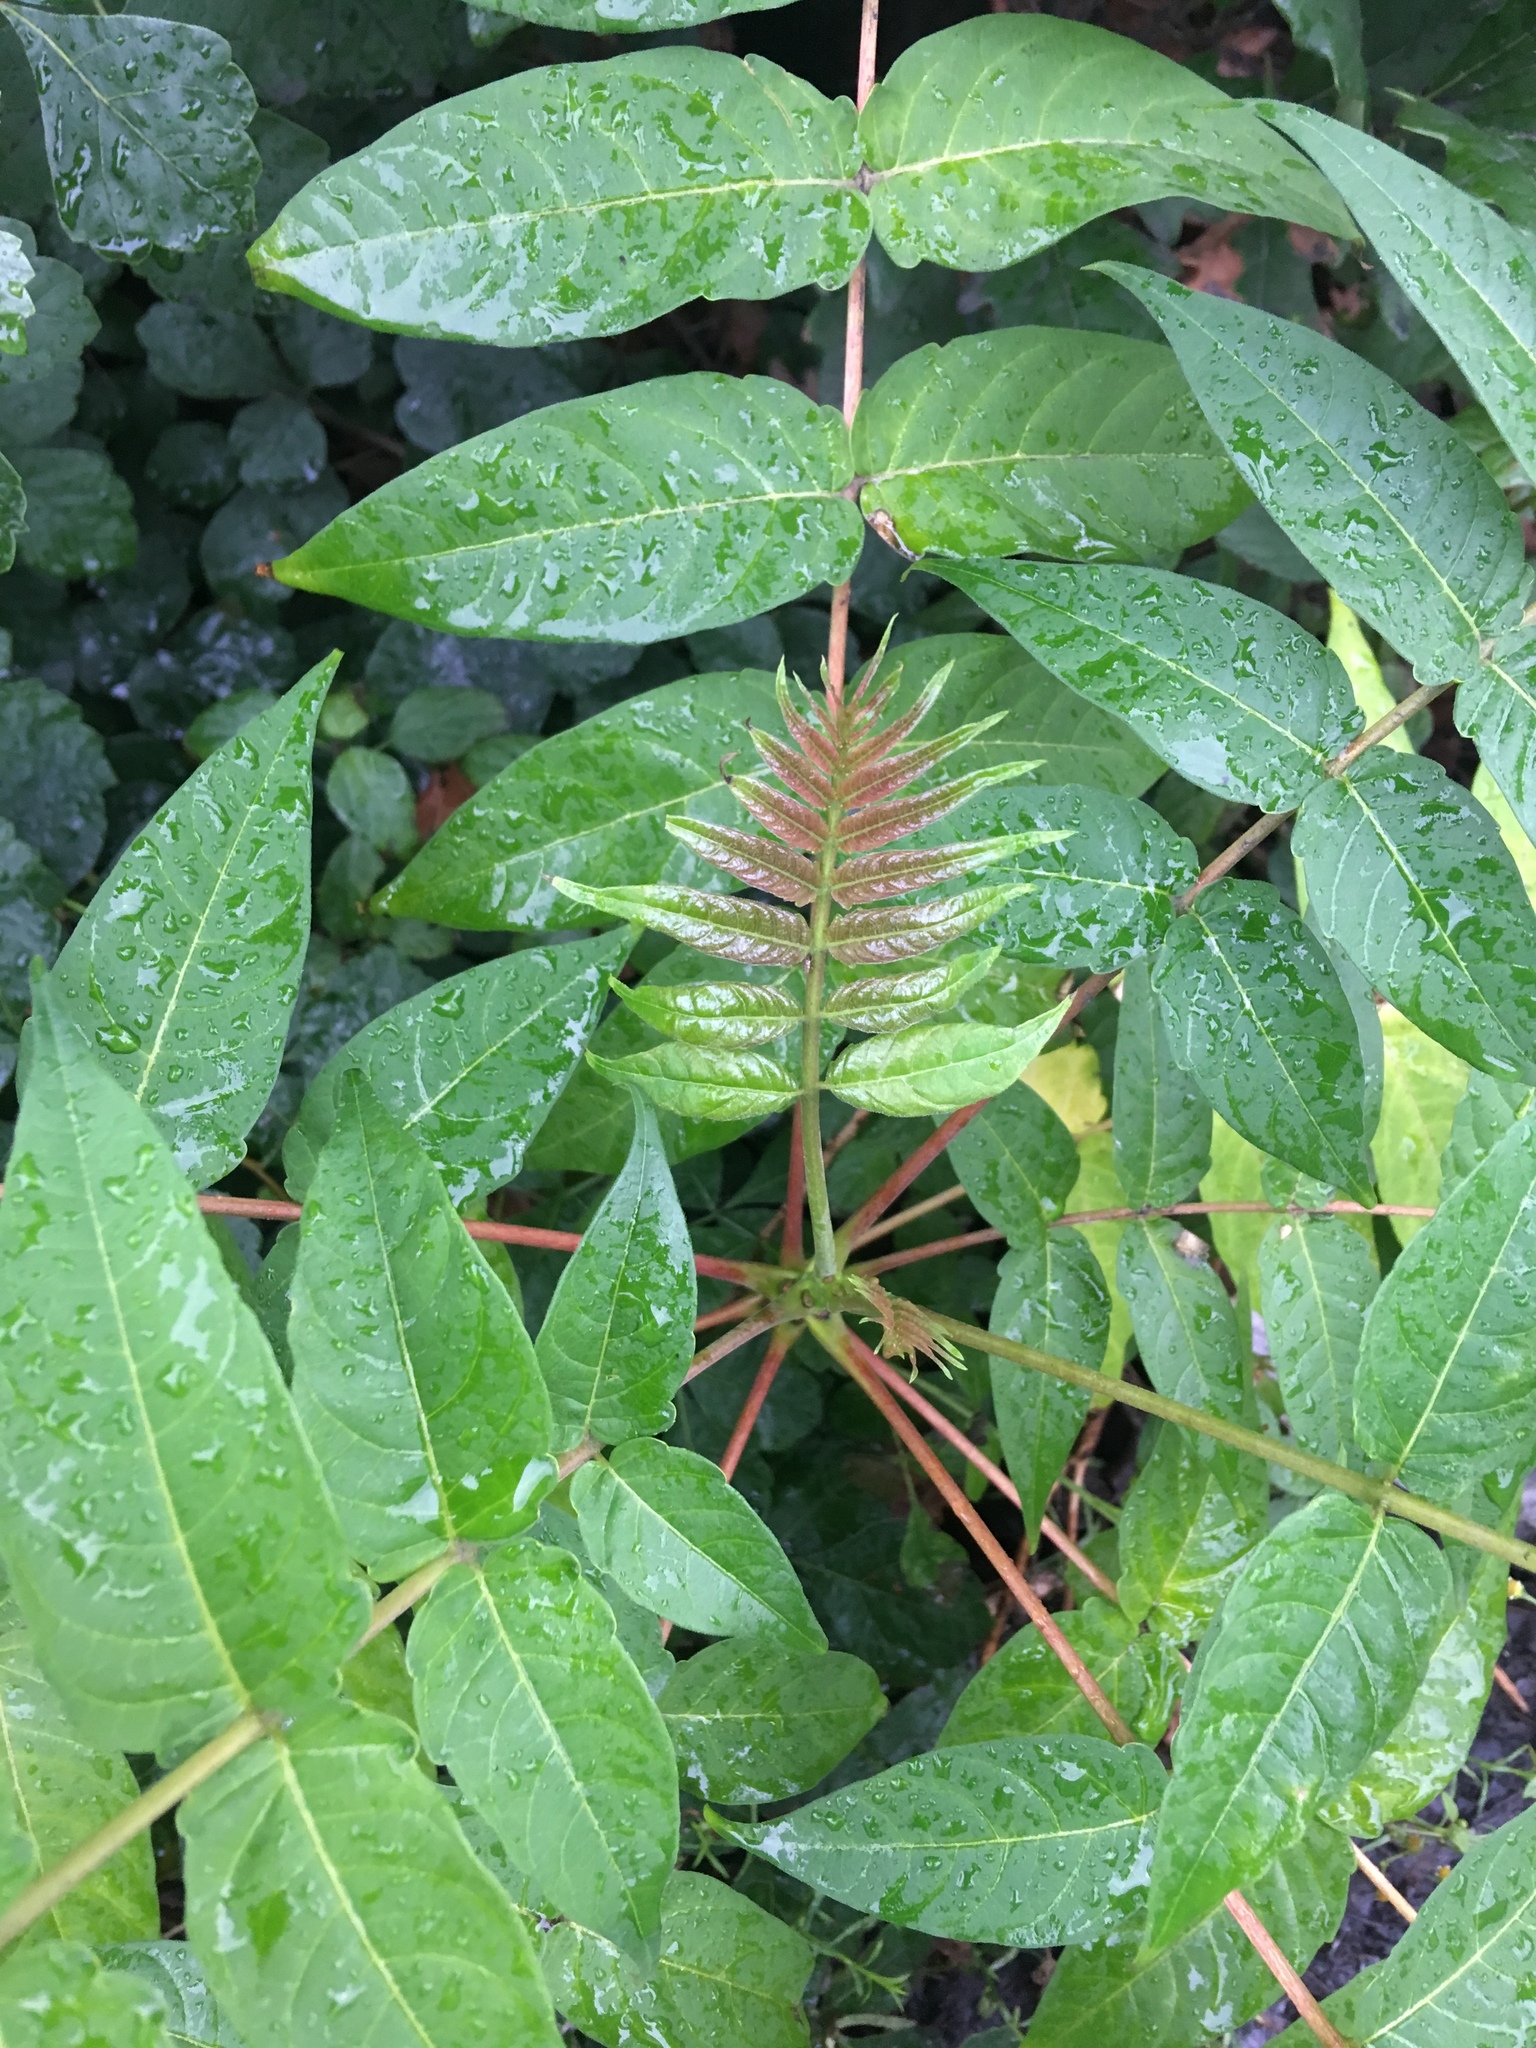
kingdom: Plantae
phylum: Tracheophyta
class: Magnoliopsida
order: Sapindales
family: Simaroubaceae
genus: Ailanthus
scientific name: Ailanthus altissima
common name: Tree-of-heaven
